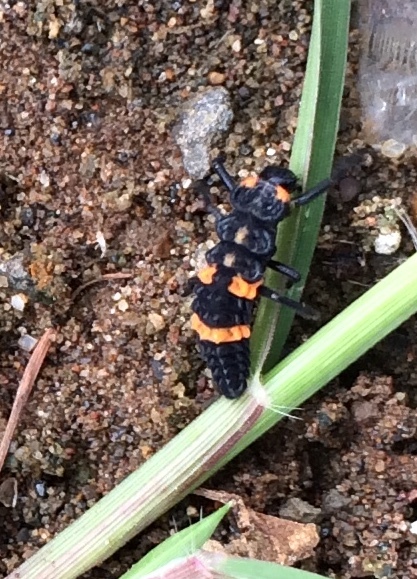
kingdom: Animalia
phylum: Arthropoda
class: Insecta
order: Coleoptera
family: Coccinellidae
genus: Coccinella
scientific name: Coccinella transversalis
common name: Transverse lady beetle
